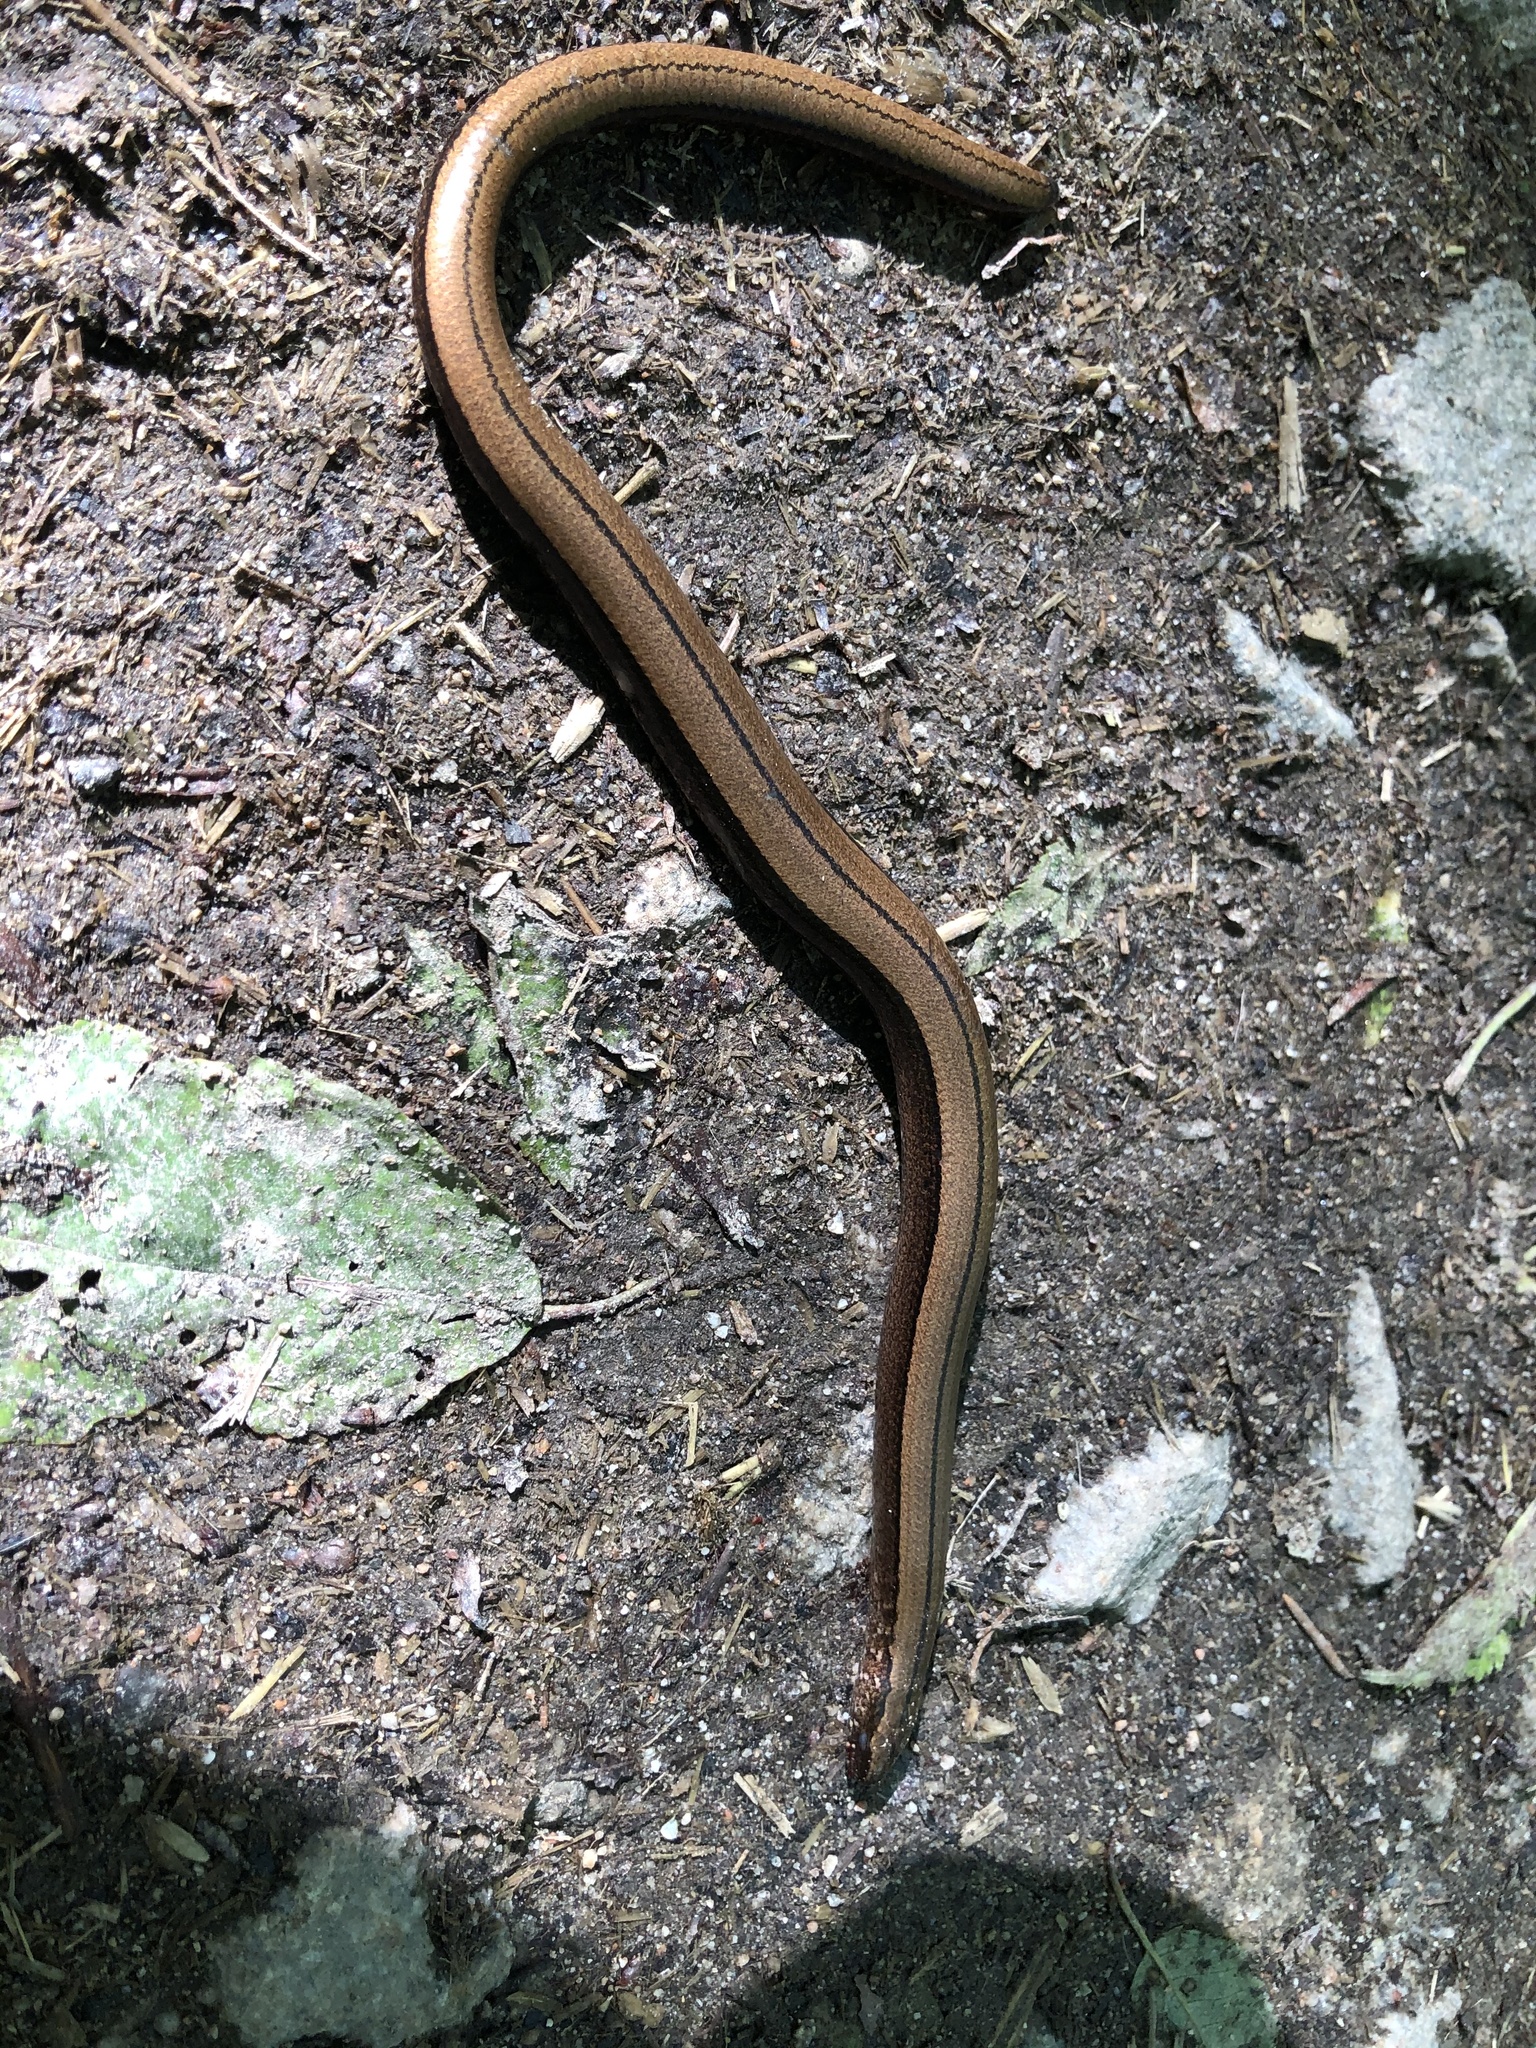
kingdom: Animalia
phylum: Chordata
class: Squamata
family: Anguidae
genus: Anguis
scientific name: Anguis fragilis
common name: Slow worm
